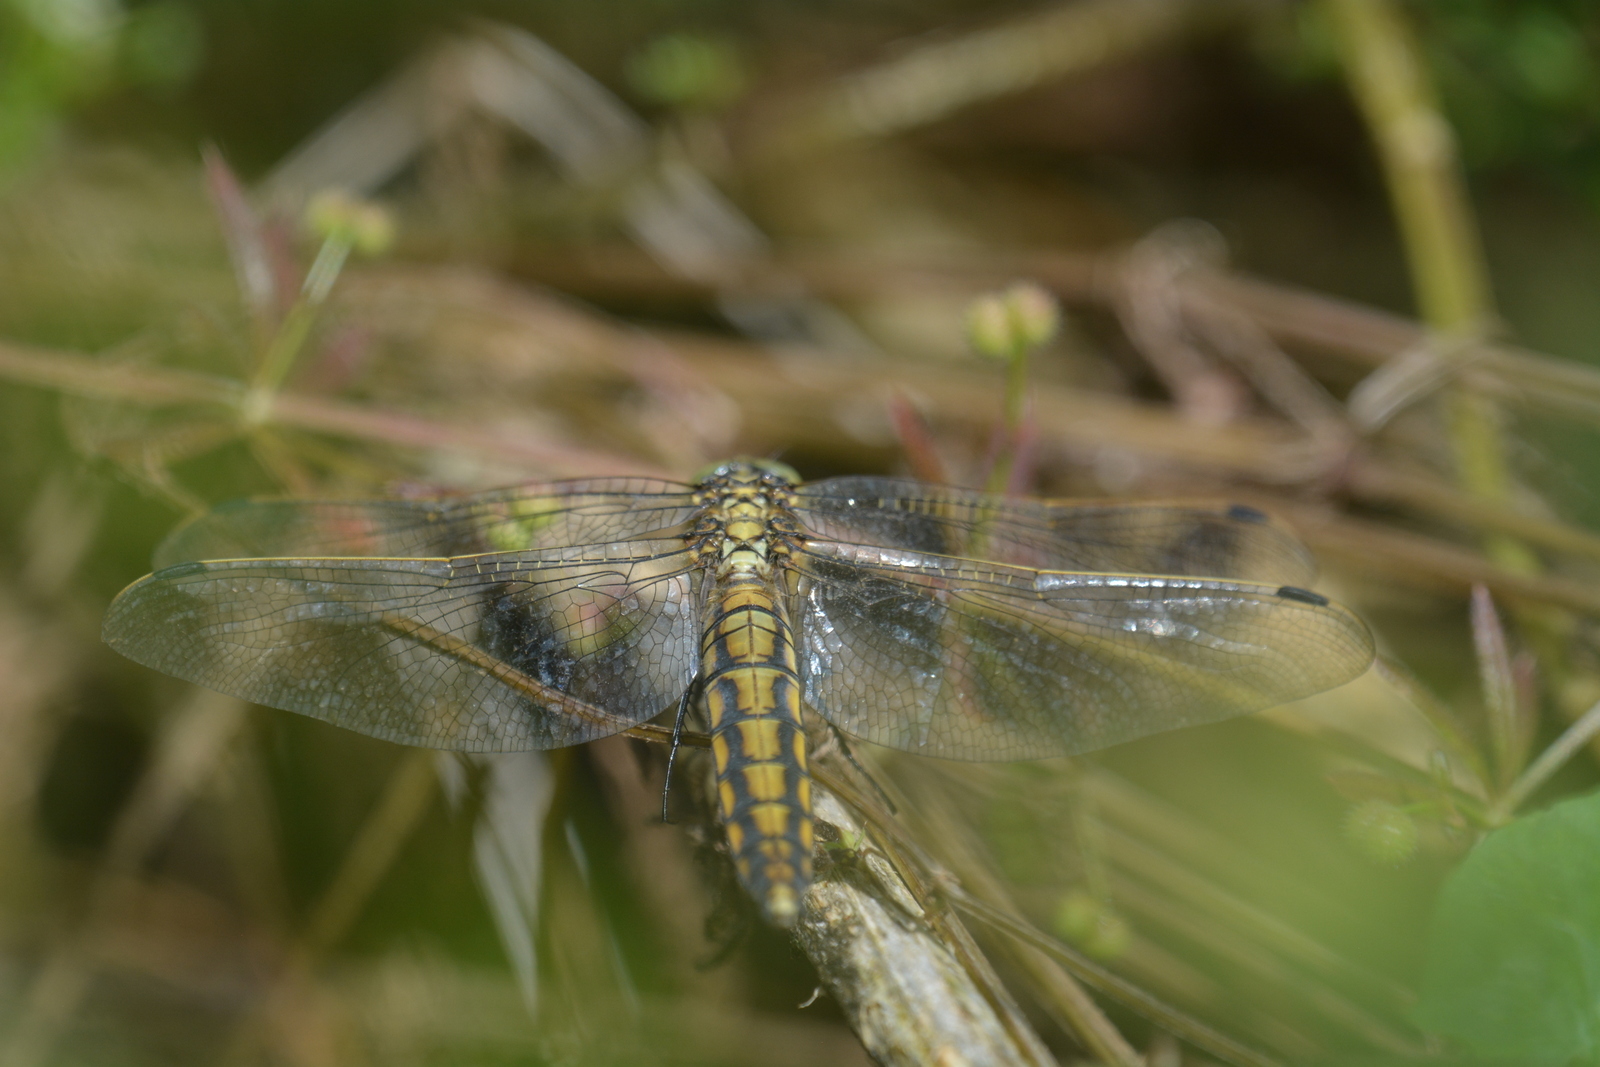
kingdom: Animalia
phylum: Arthropoda
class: Insecta
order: Odonata
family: Libellulidae
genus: Orthetrum
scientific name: Orthetrum cancellatum
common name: Black-tailed skimmer
